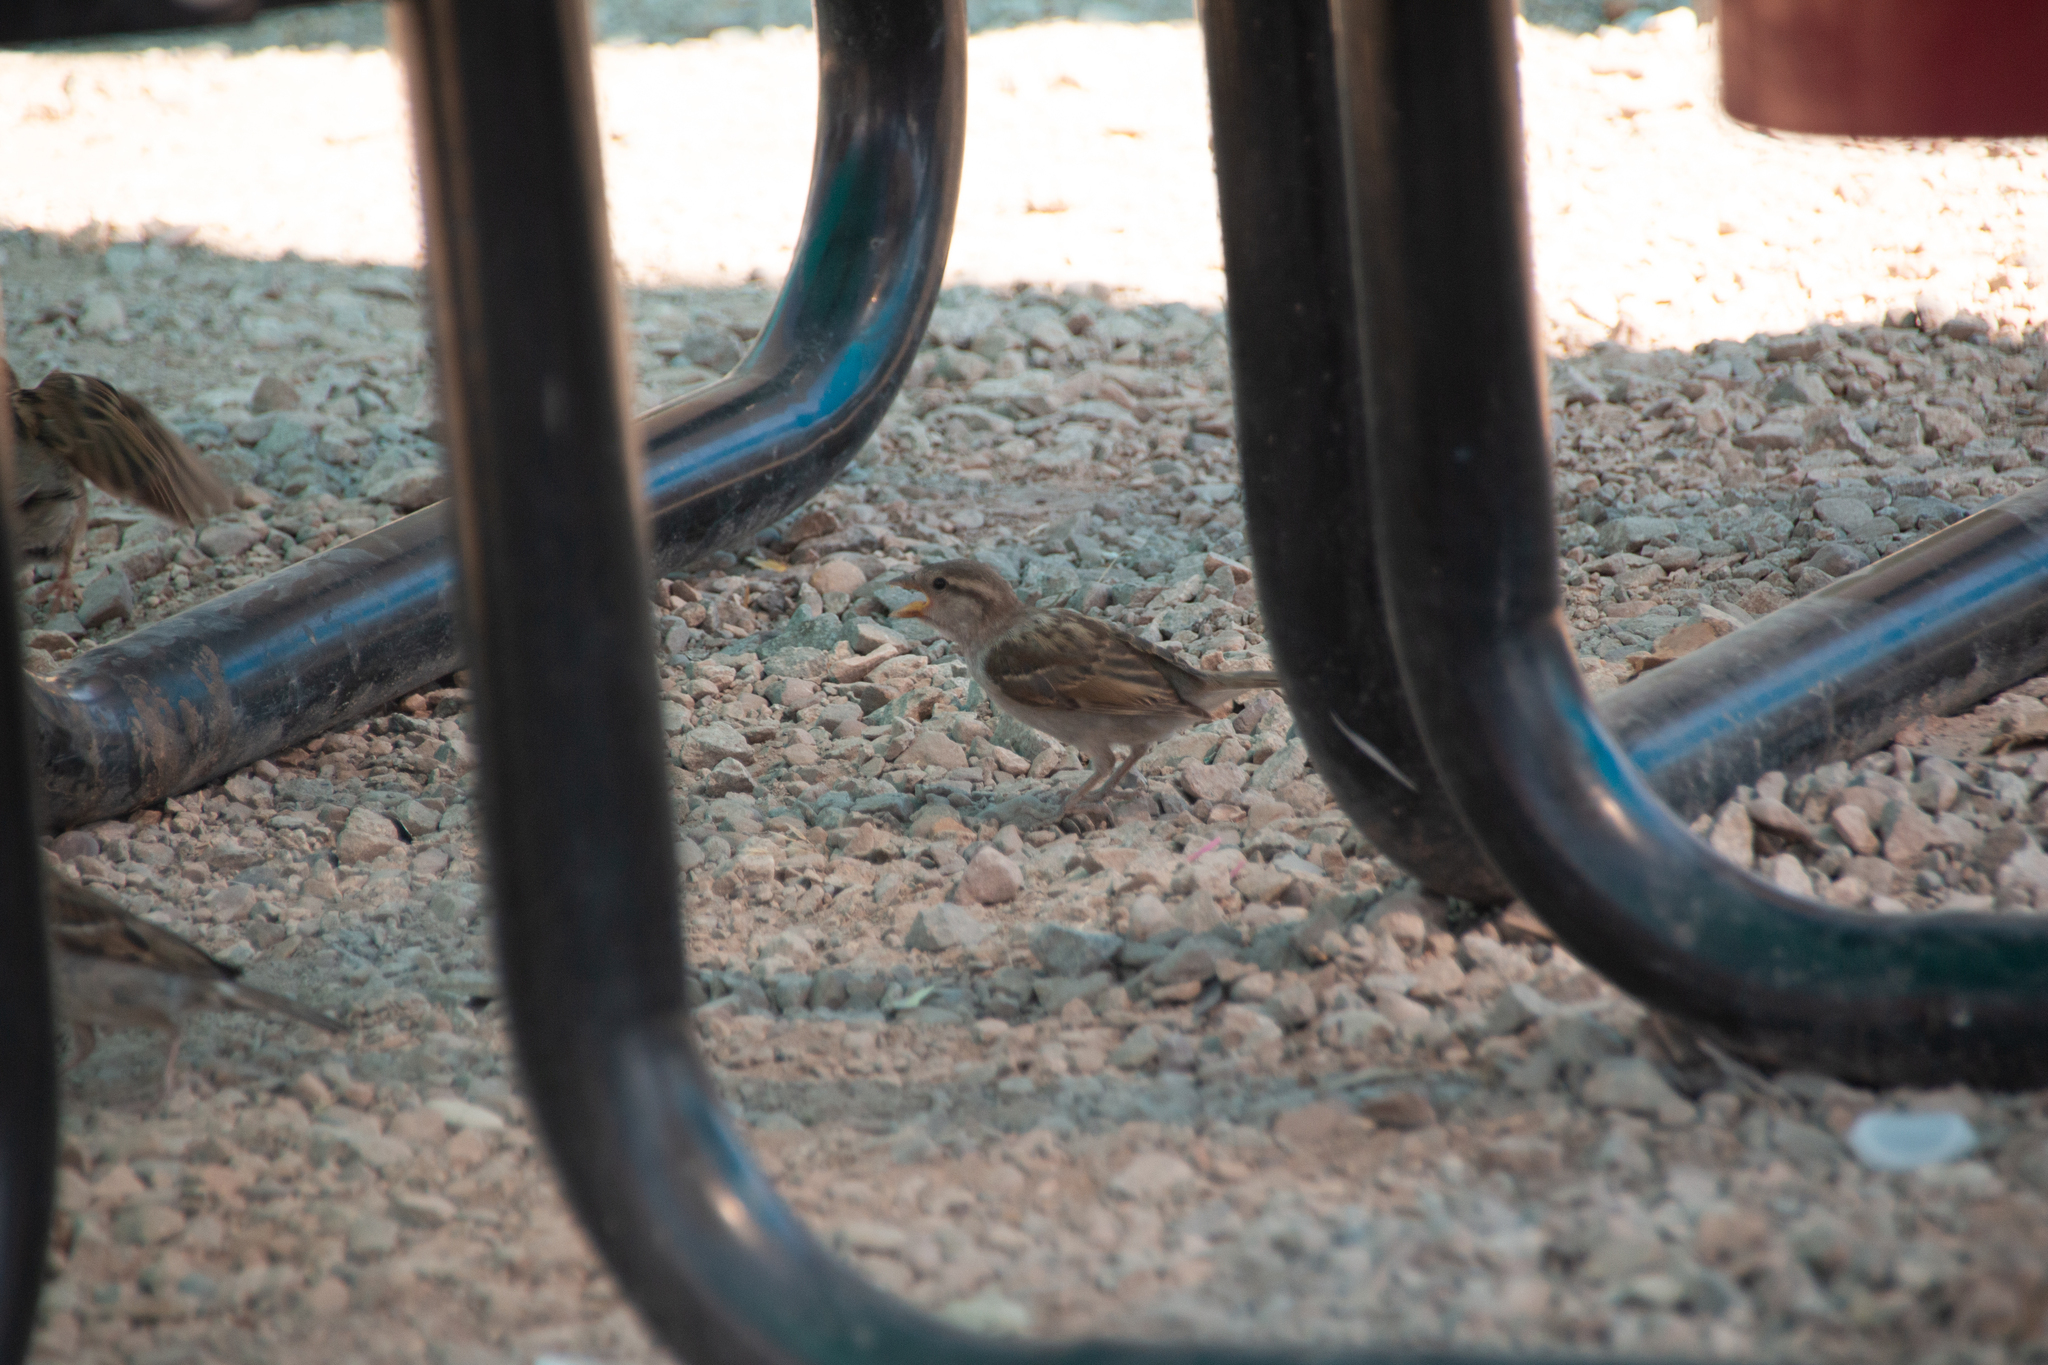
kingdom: Animalia
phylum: Chordata
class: Aves
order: Passeriformes
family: Passeridae
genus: Passer
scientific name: Passer domesticus
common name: House sparrow
